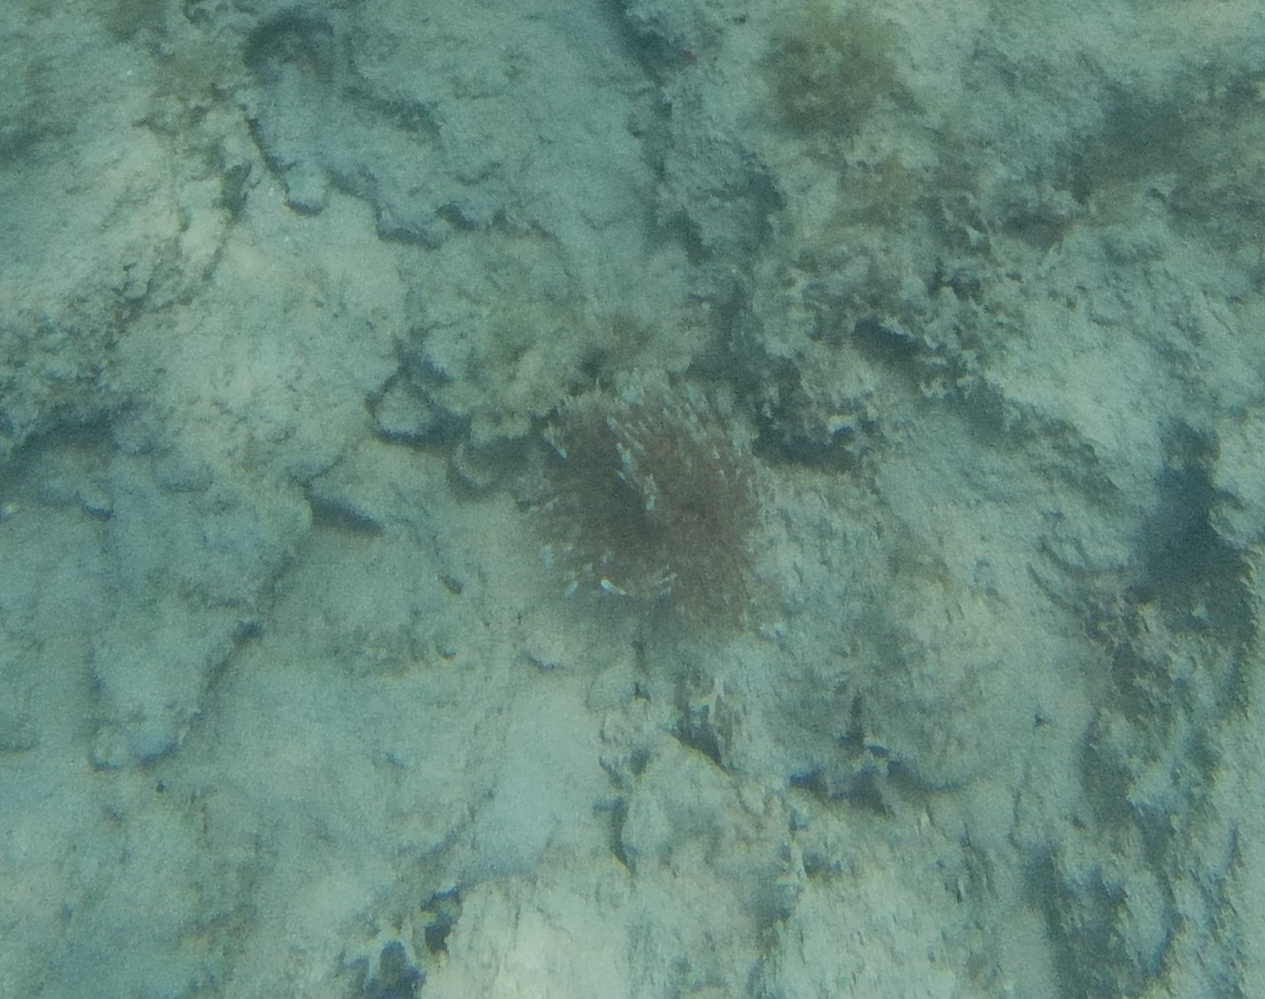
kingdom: Animalia
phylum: Annelida
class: Polychaeta
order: Sabellida
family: Sabellidae
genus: Sabellastarte
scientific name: Sabellastarte magnifica
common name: Giant feather-duster worm
